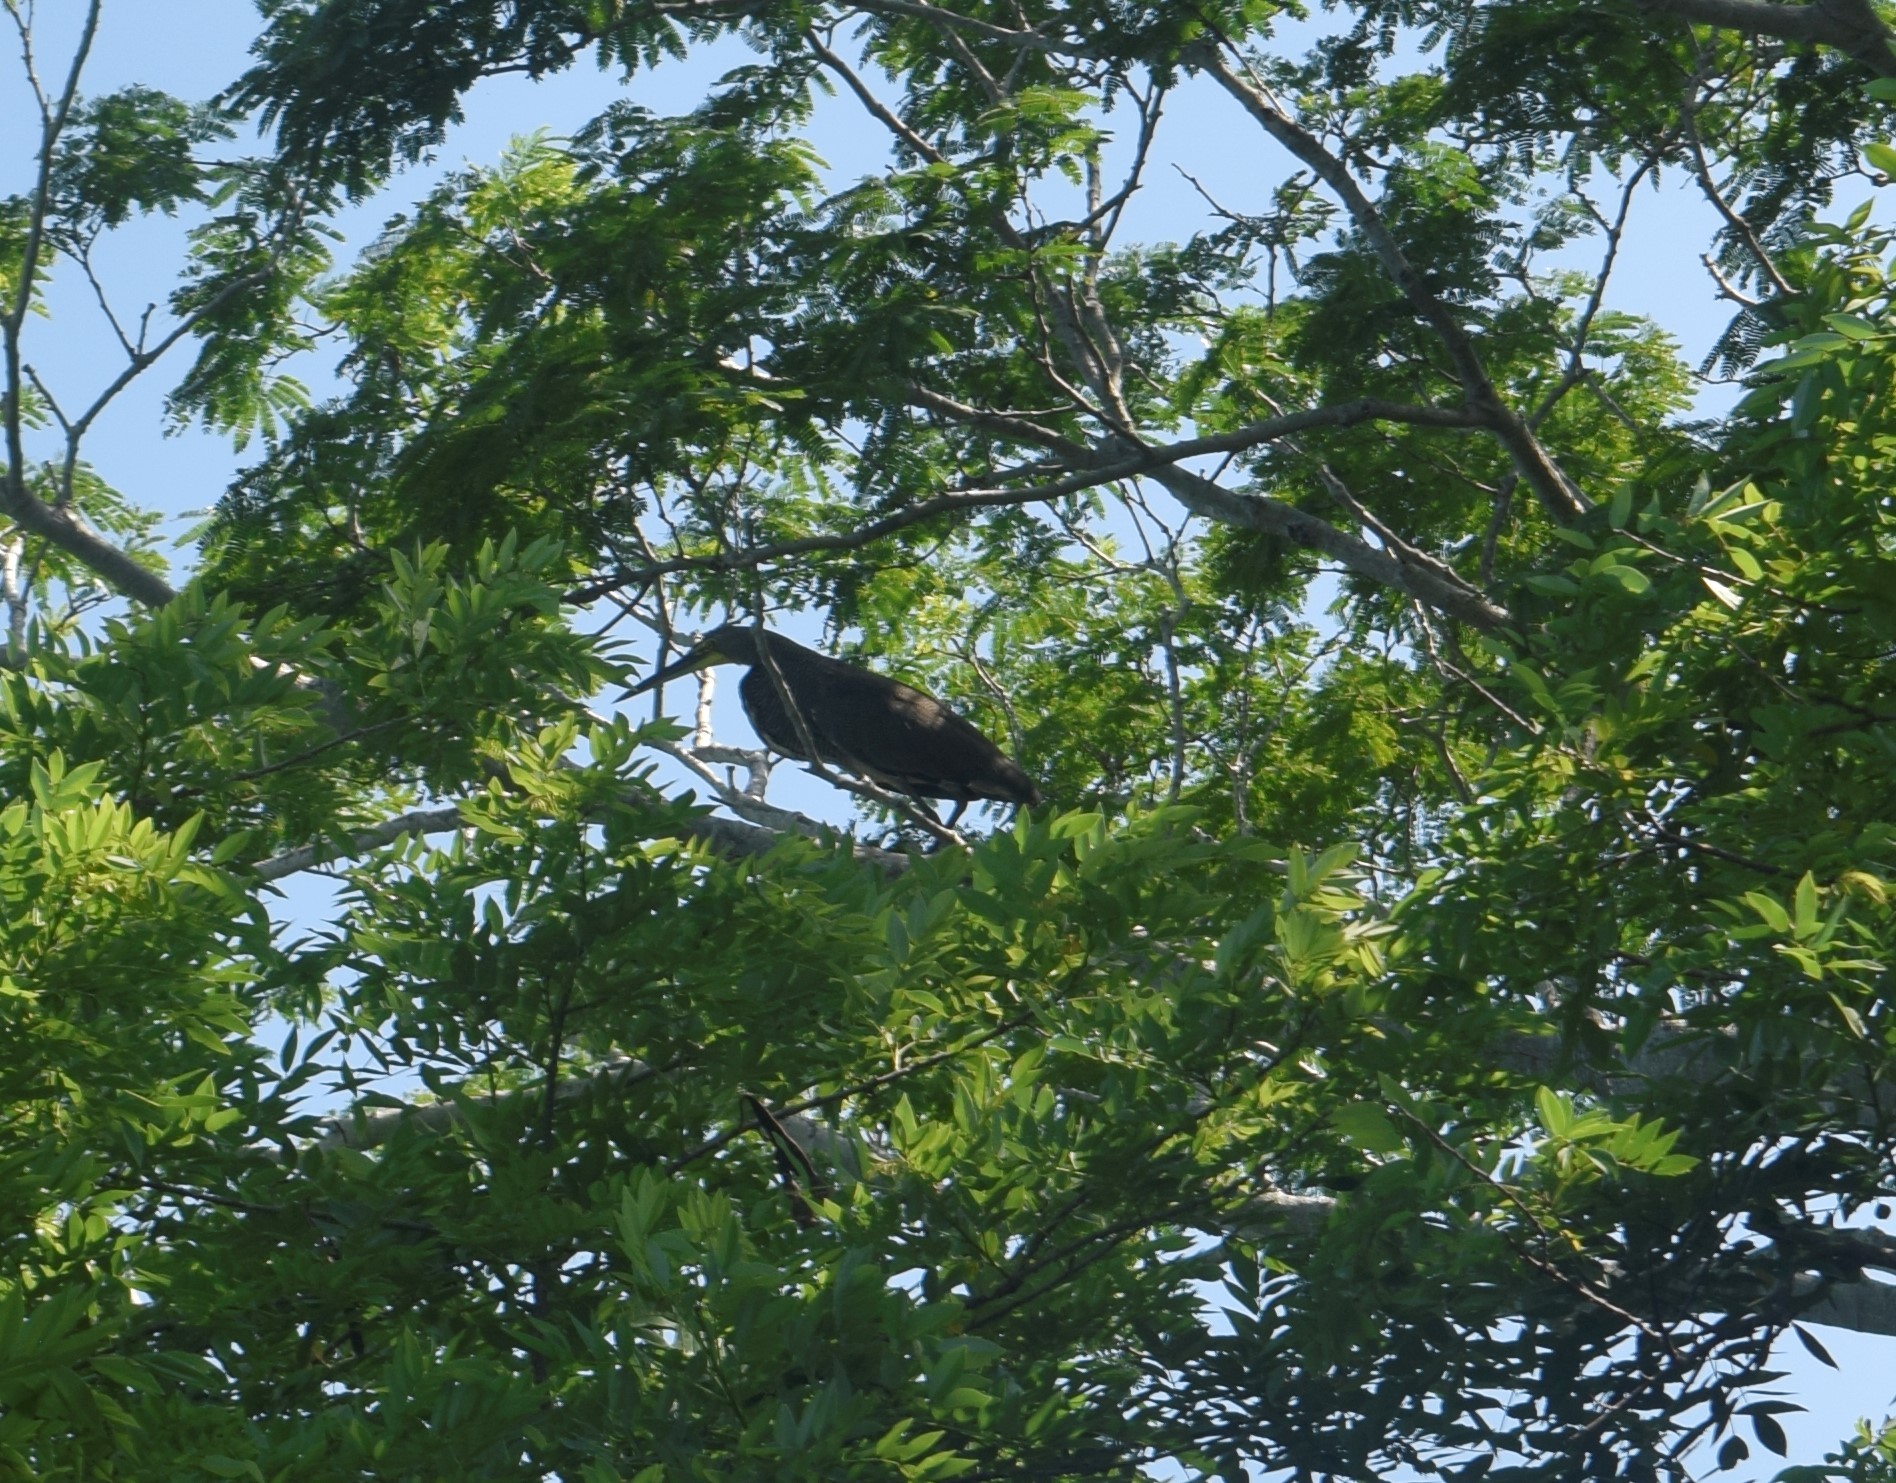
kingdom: Animalia
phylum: Chordata
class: Aves
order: Pelecaniformes
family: Ardeidae
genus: Tigrisoma
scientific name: Tigrisoma mexicanum
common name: Bare-throated tiger-heron
